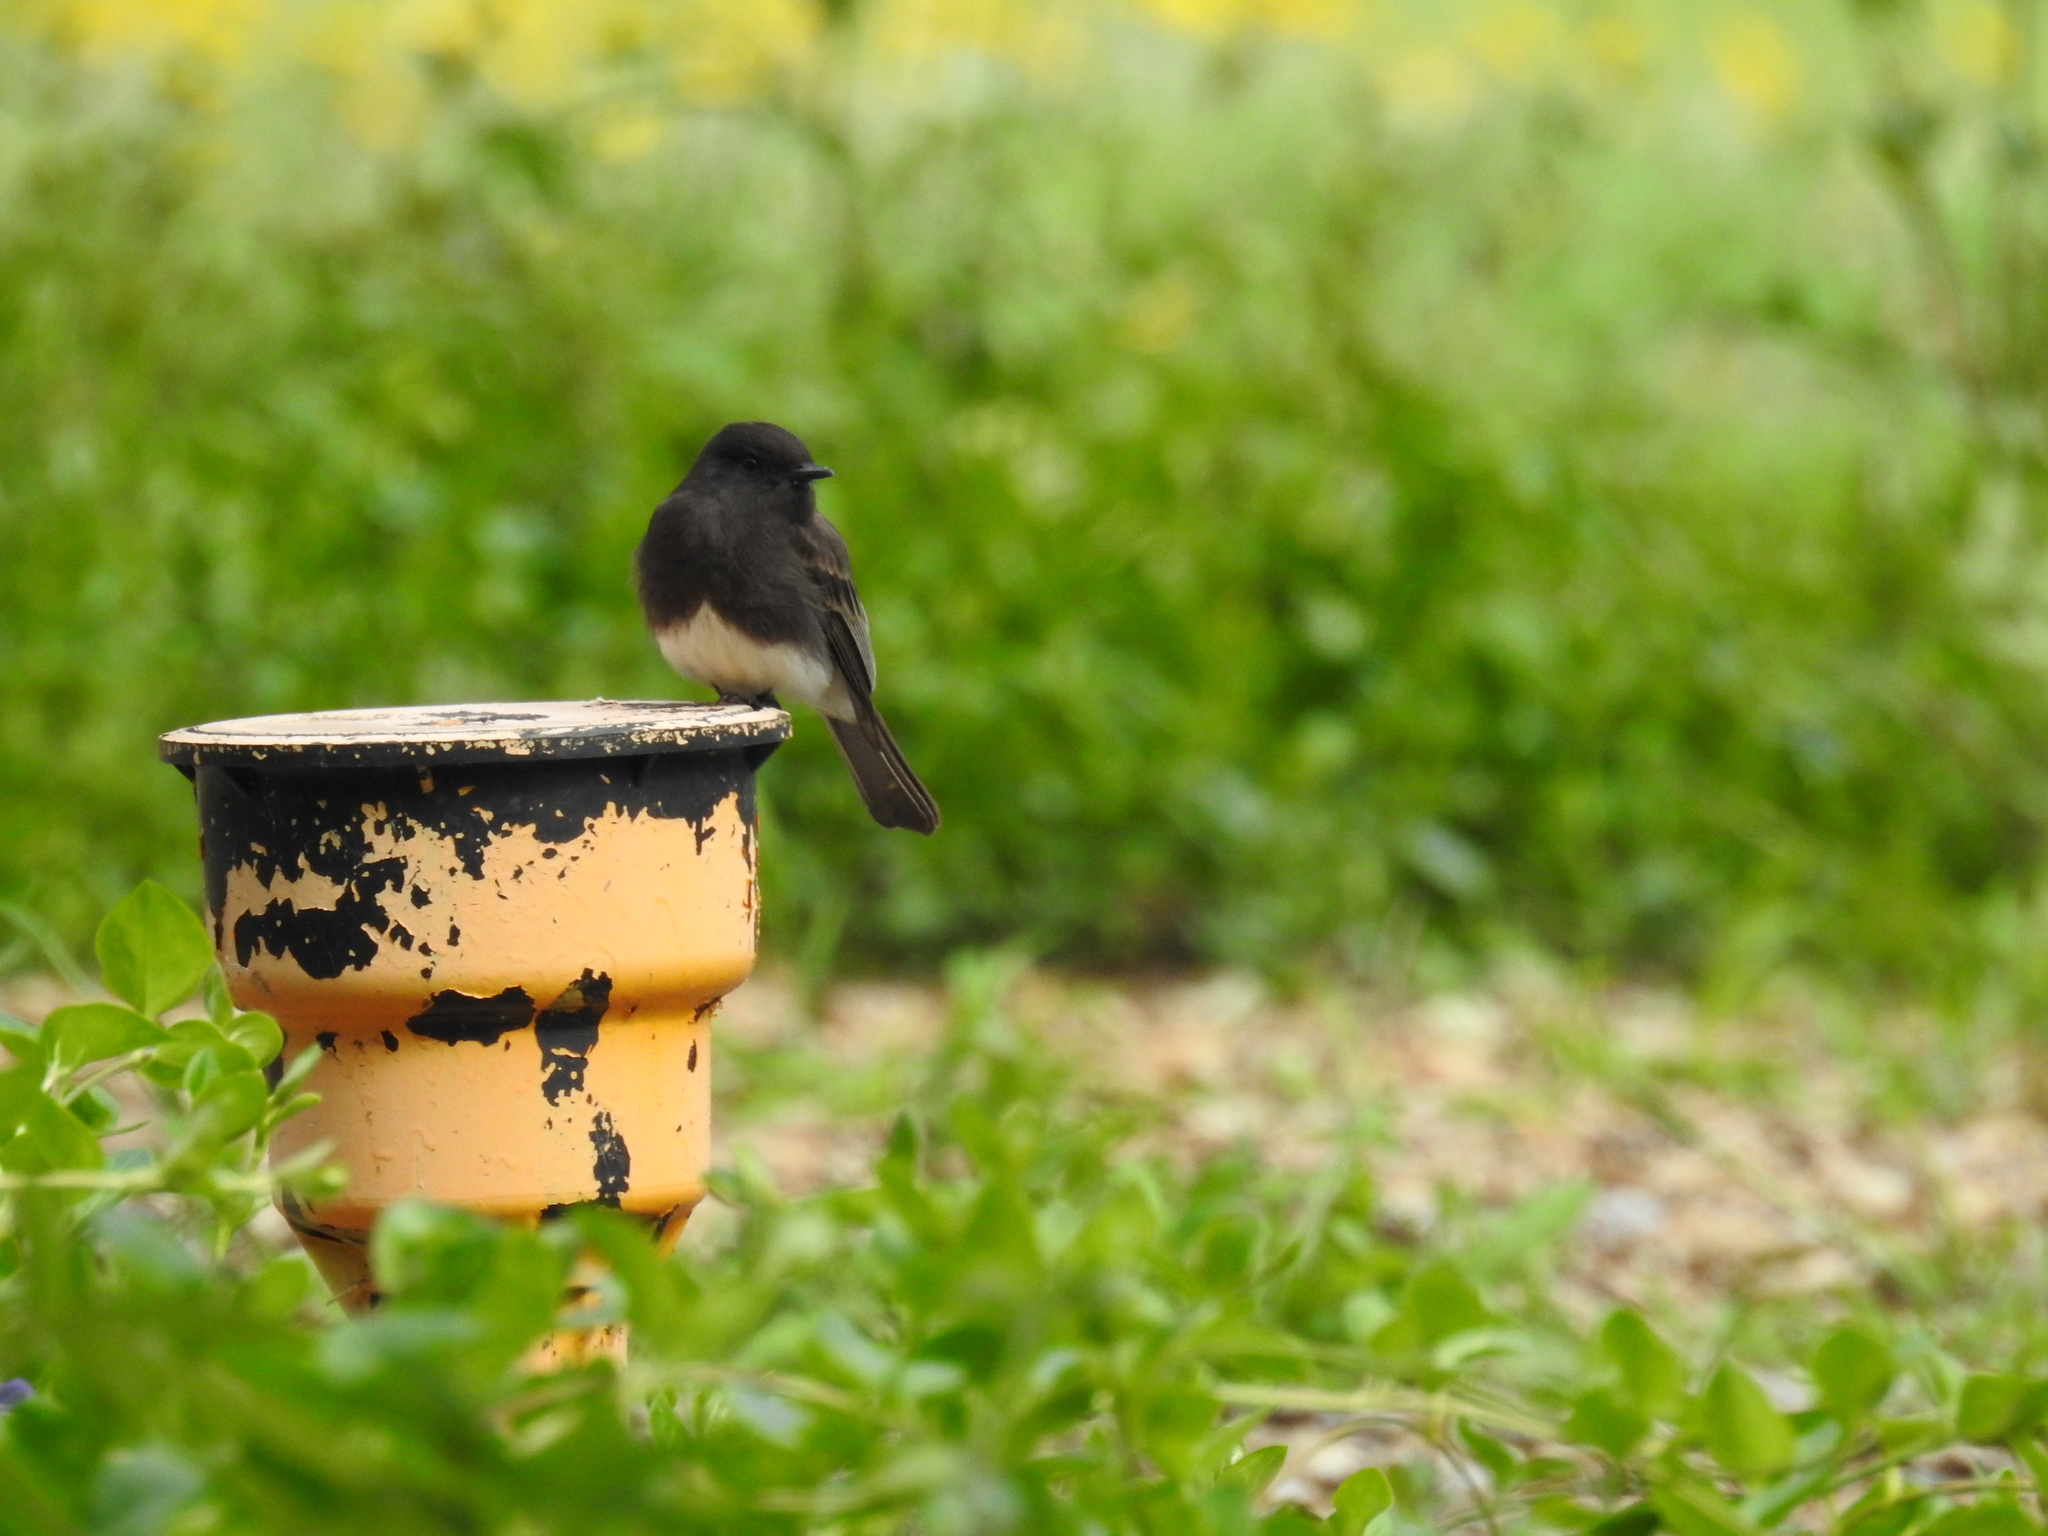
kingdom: Animalia
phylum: Chordata
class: Aves
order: Passeriformes
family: Tyrannidae
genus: Sayornis
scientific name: Sayornis nigricans
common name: Black phoebe
